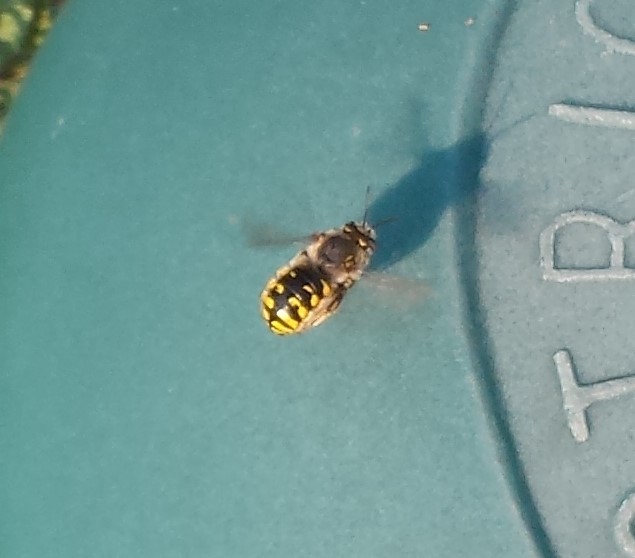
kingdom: Animalia
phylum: Arthropoda
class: Insecta
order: Hymenoptera
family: Megachilidae
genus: Anthidium
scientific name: Anthidium manicatum
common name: Wool carder bee
